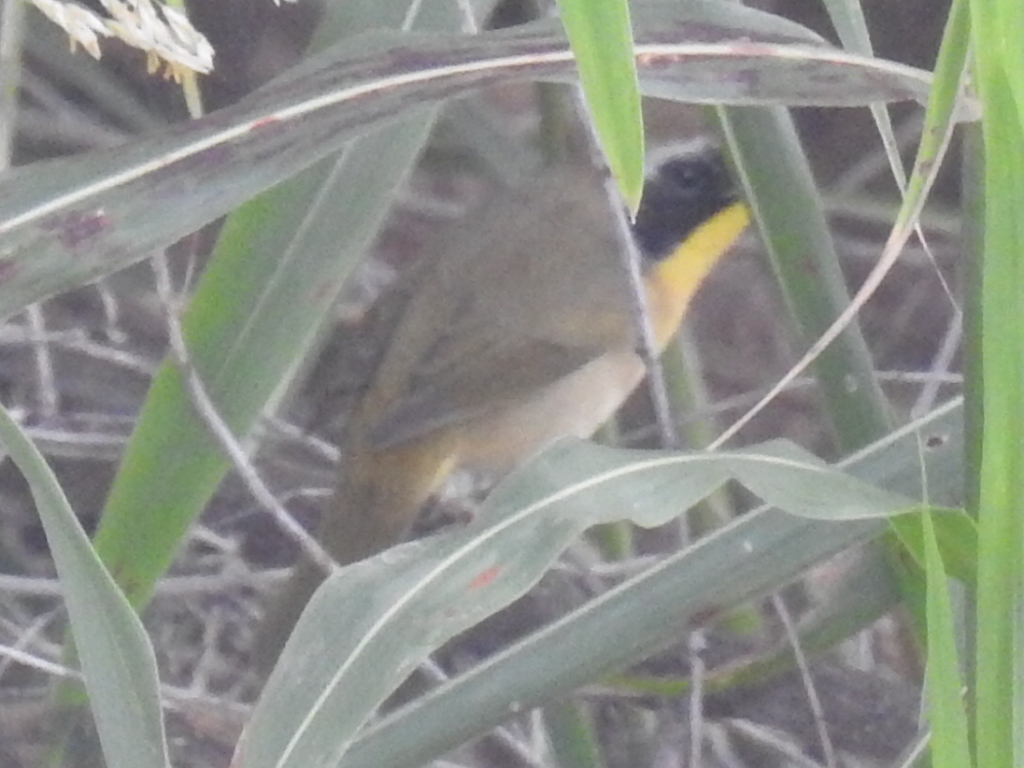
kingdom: Animalia
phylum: Chordata
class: Aves
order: Passeriformes
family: Parulidae
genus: Geothlypis
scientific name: Geothlypis trichas
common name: Common yellowthroat
